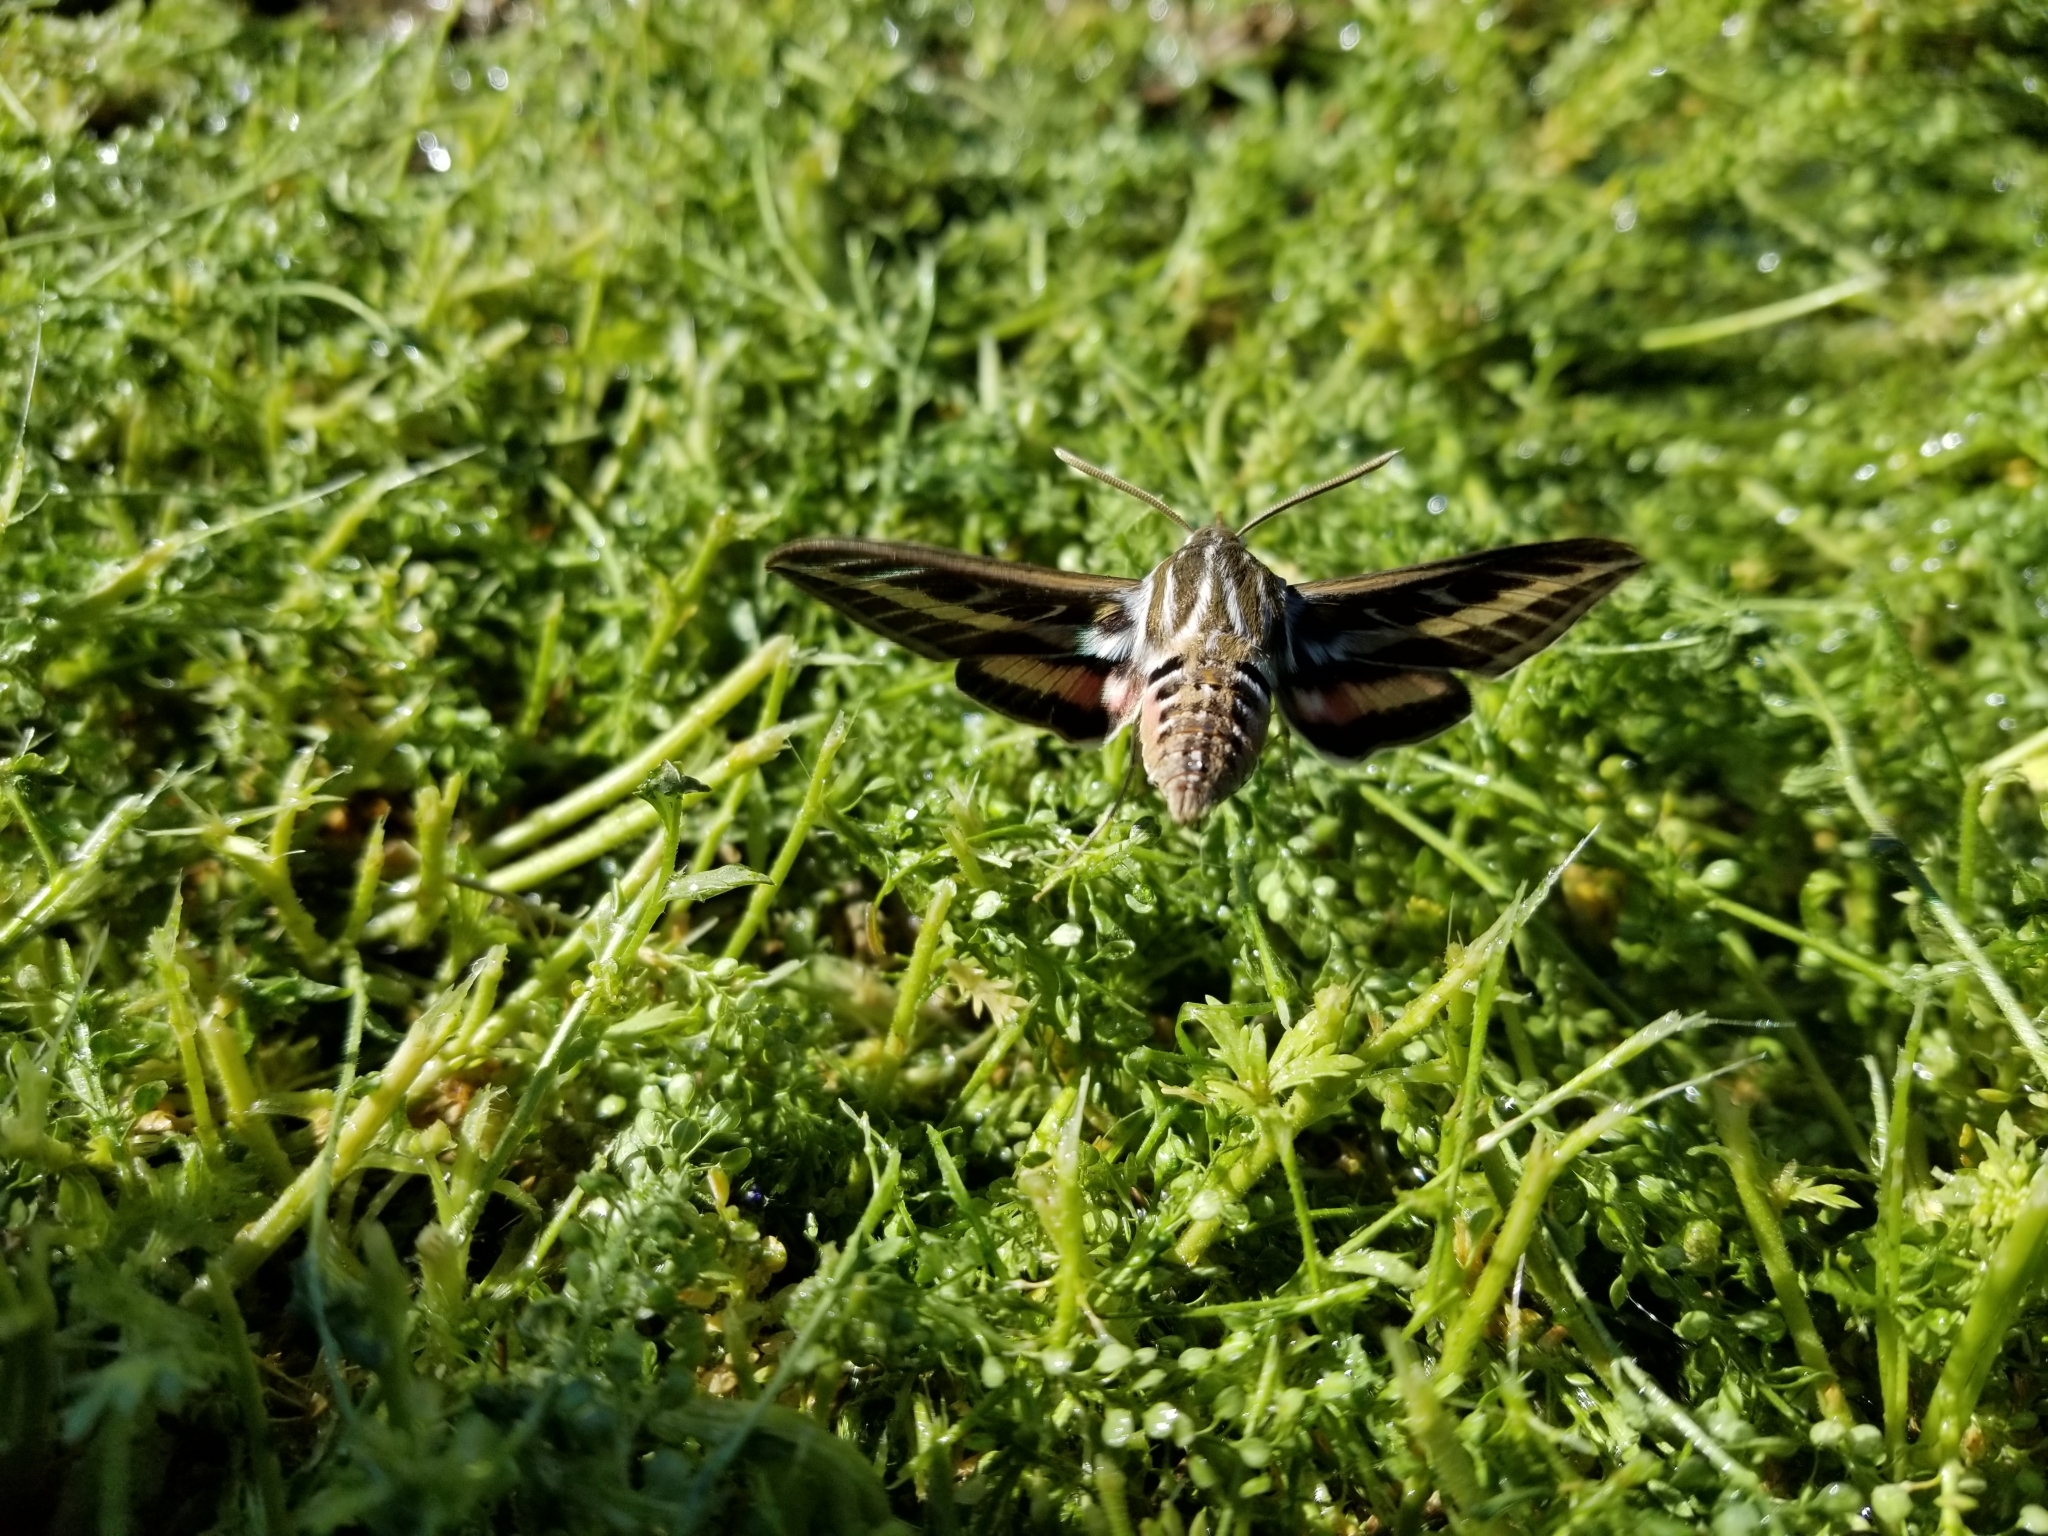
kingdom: Animalia
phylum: Arthropoda
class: Insecta
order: Lepidoptera
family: Sphingidae
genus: Hyles
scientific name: Hyles lineata
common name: White-lined sphinx
